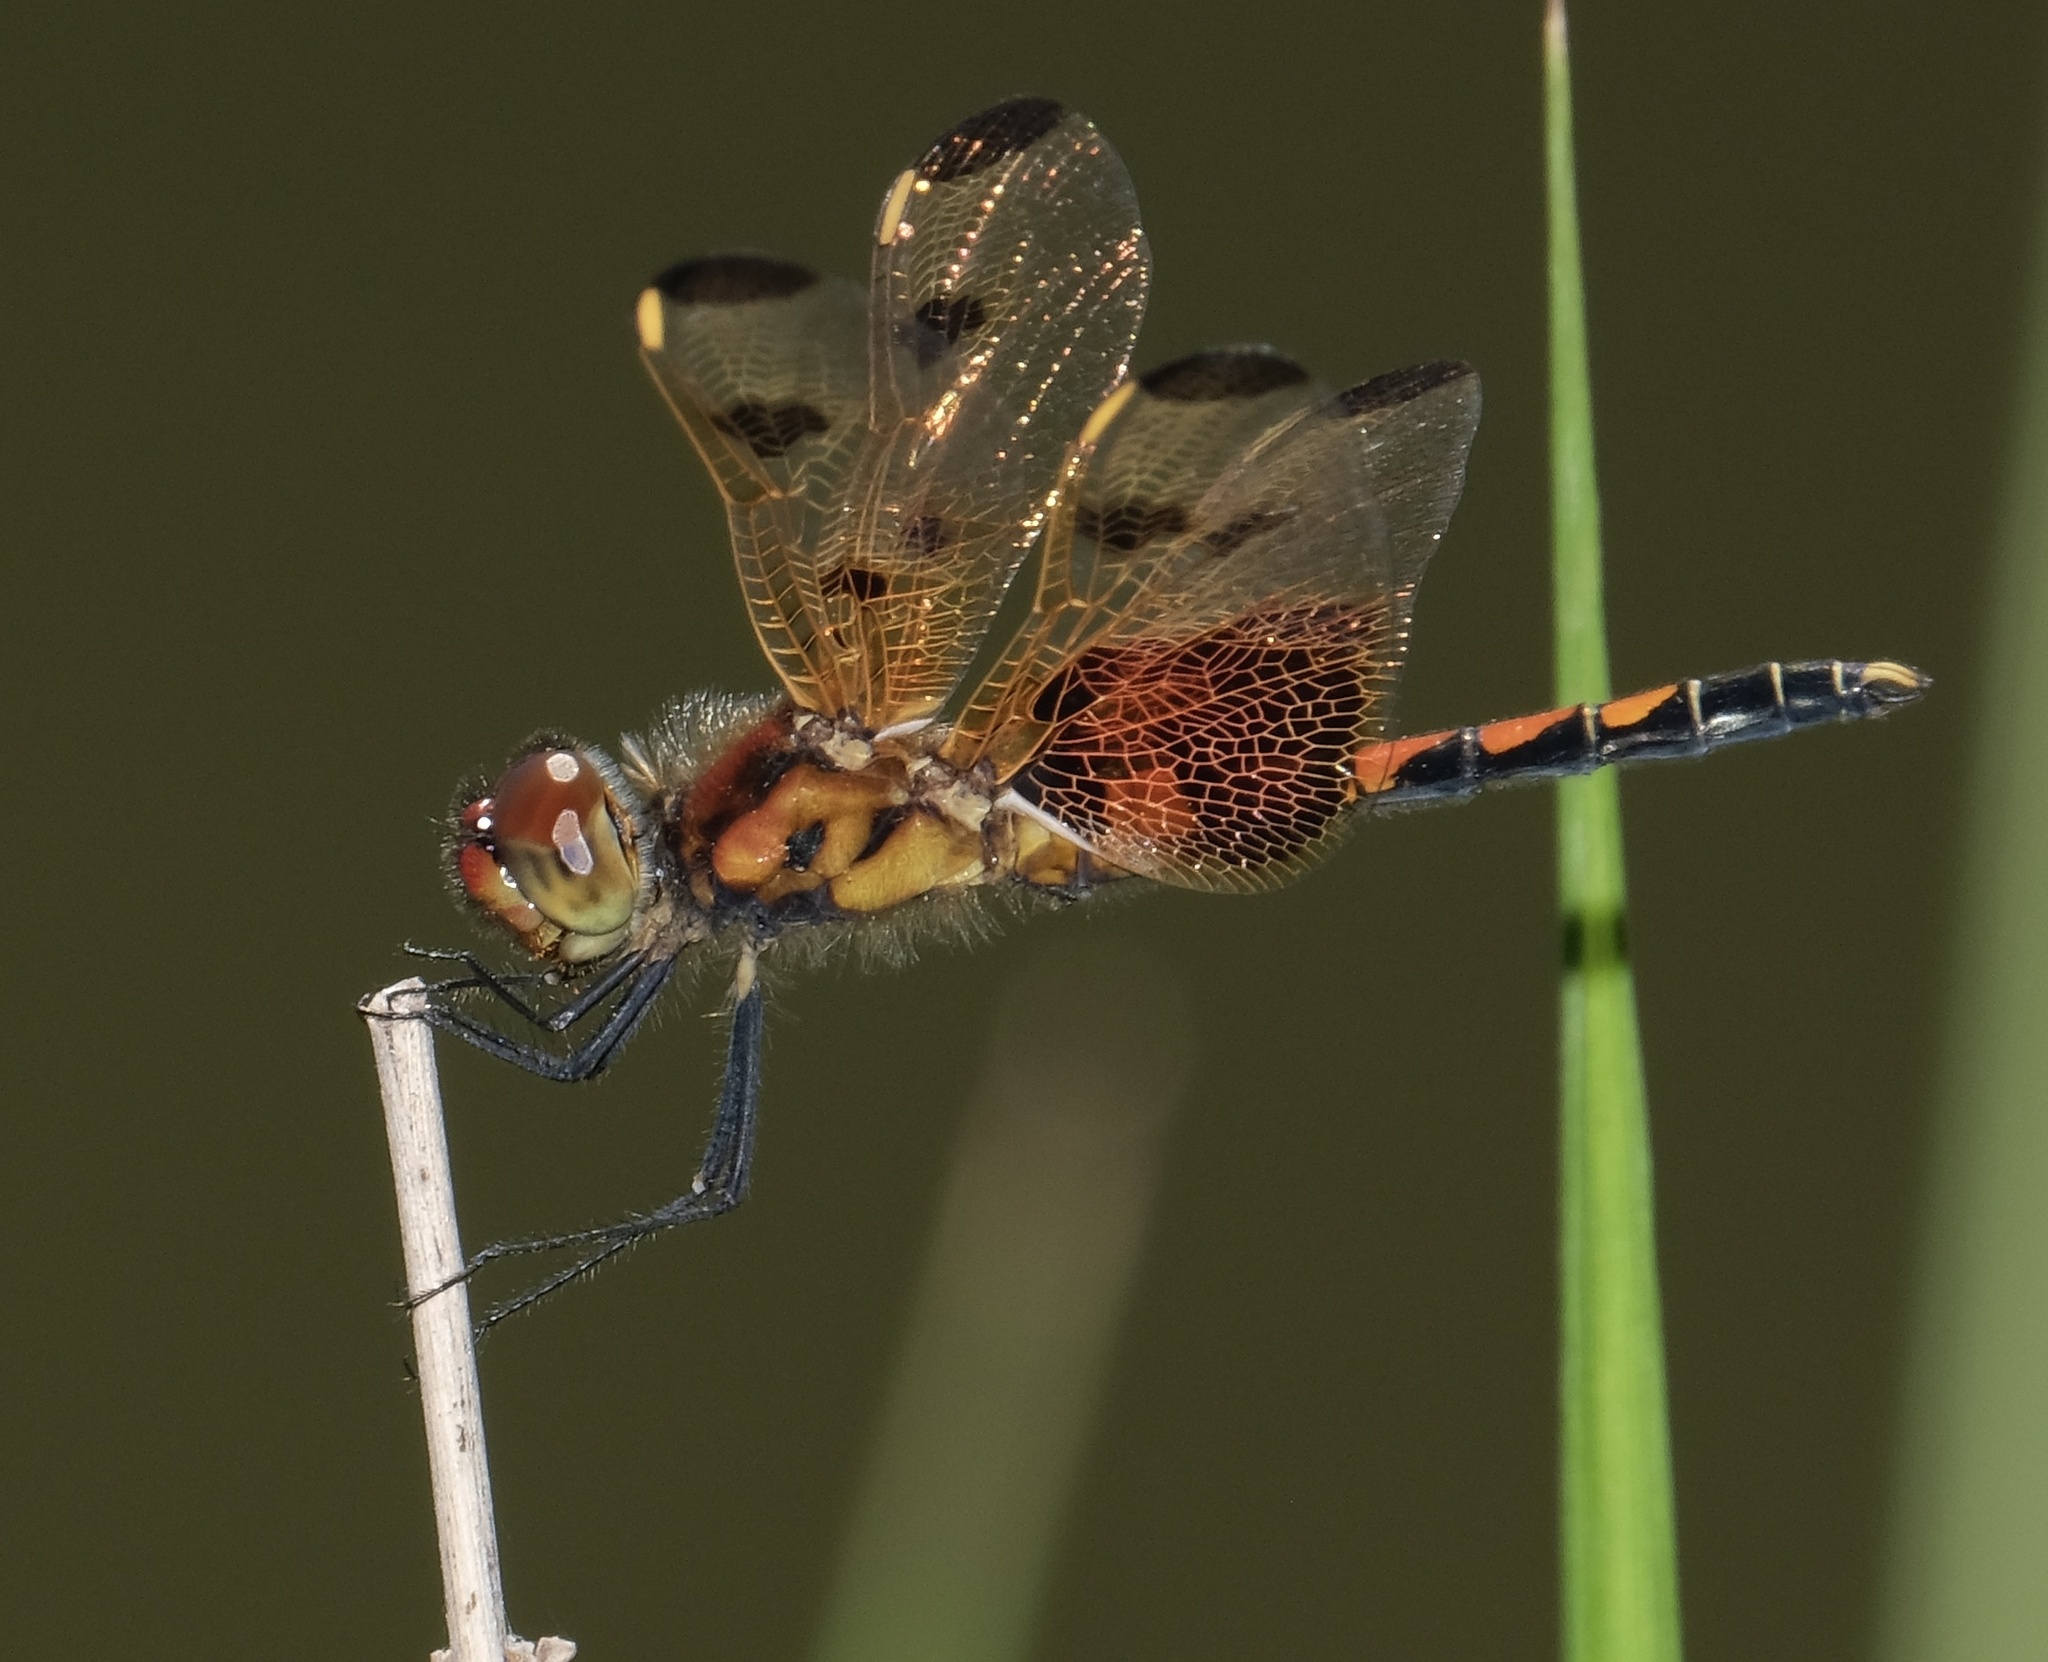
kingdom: Animalia
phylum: Arthropoda
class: Insecta
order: Odonata
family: Libellulidae
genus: Celithemis
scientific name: Celithemis elisa
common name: Calico pennant
